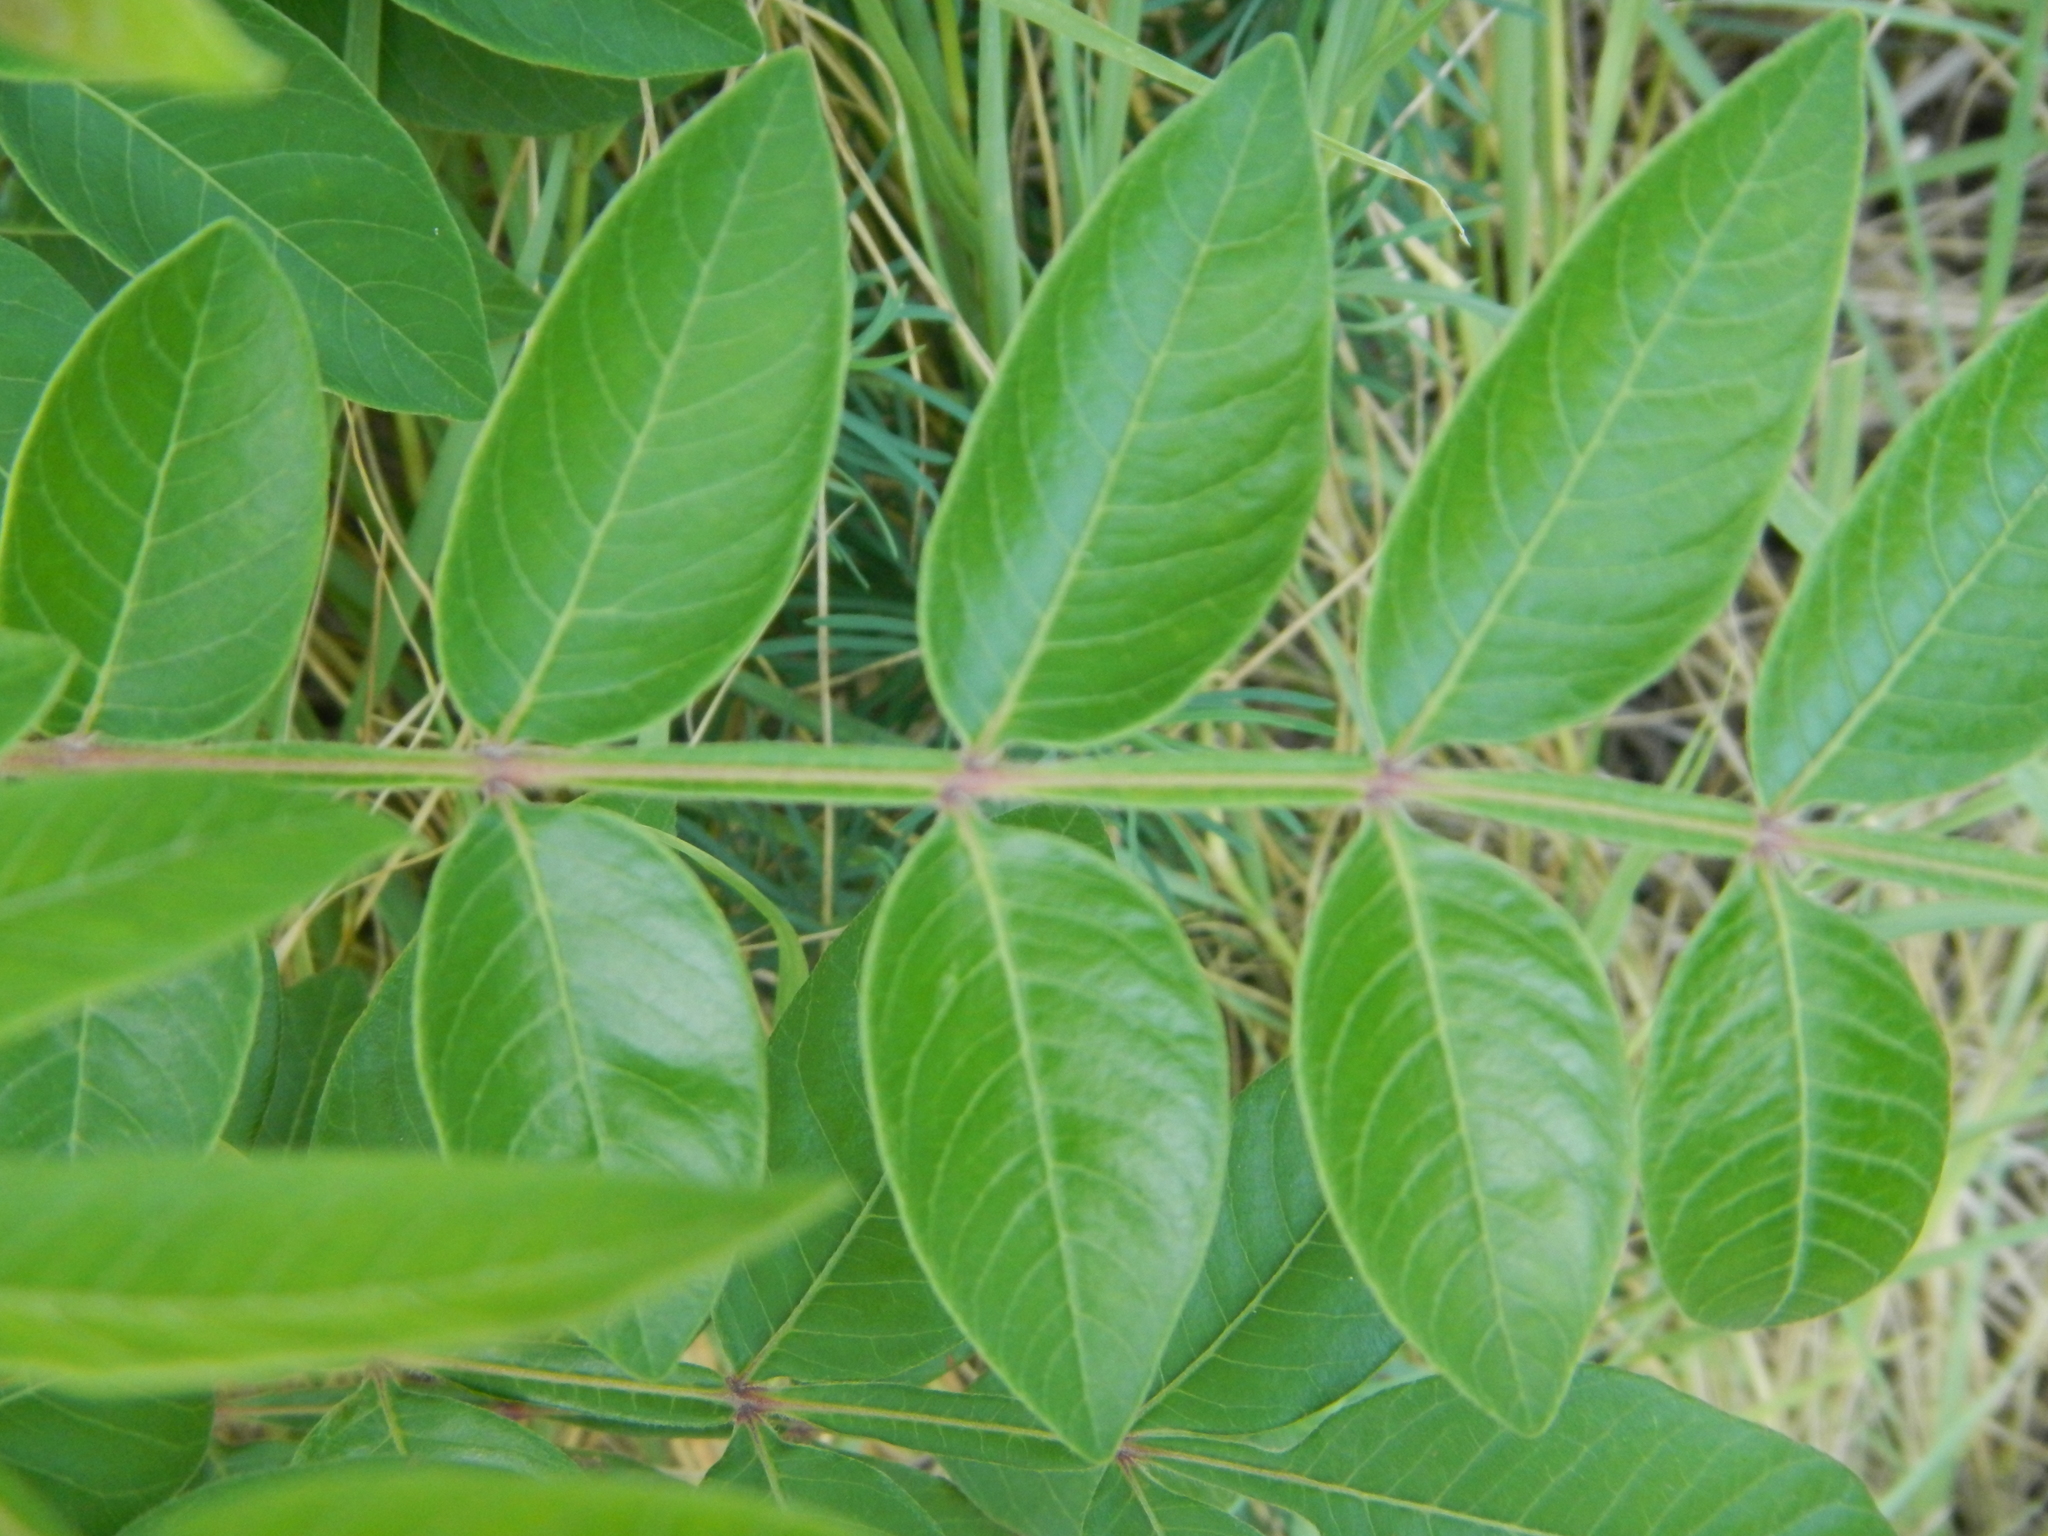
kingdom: Plantae
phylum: Tracheophyta
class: Magnoliopsida
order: Sapindales
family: Anacardiaceae
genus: Rhus
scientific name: Rhus copallina
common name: Shining sumac
